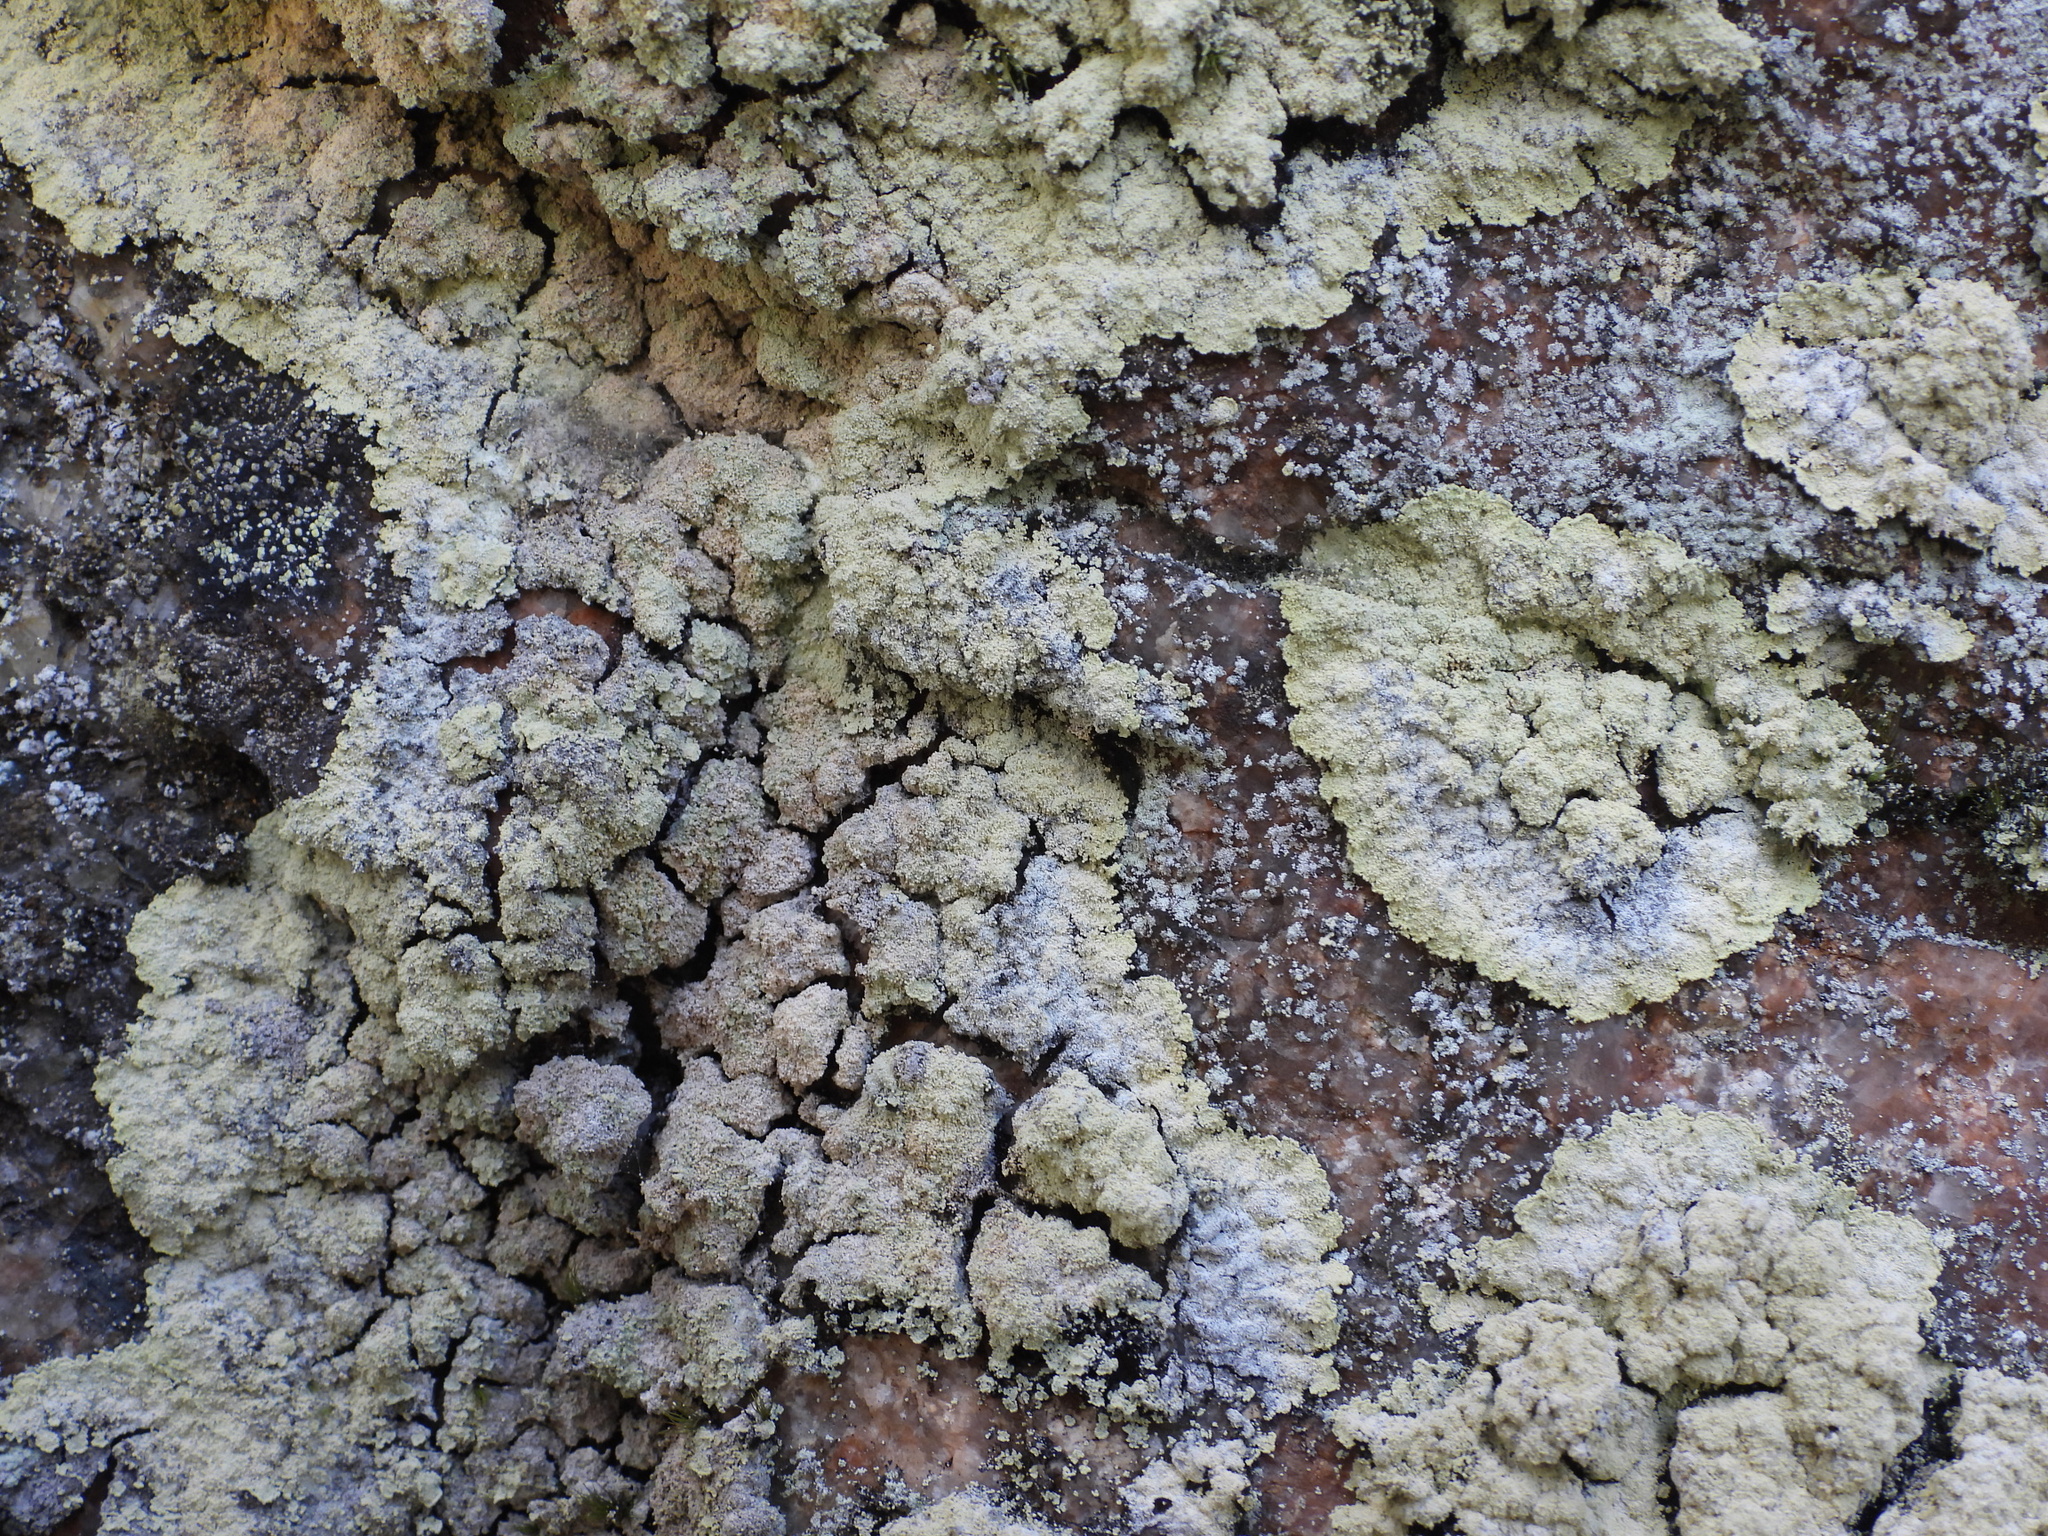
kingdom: Fungi
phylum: Ascomycota
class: Lecanoromycetes
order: Lecanorales
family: Stereocaulaceae
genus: Lepraria
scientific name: Lepraria membranacea
